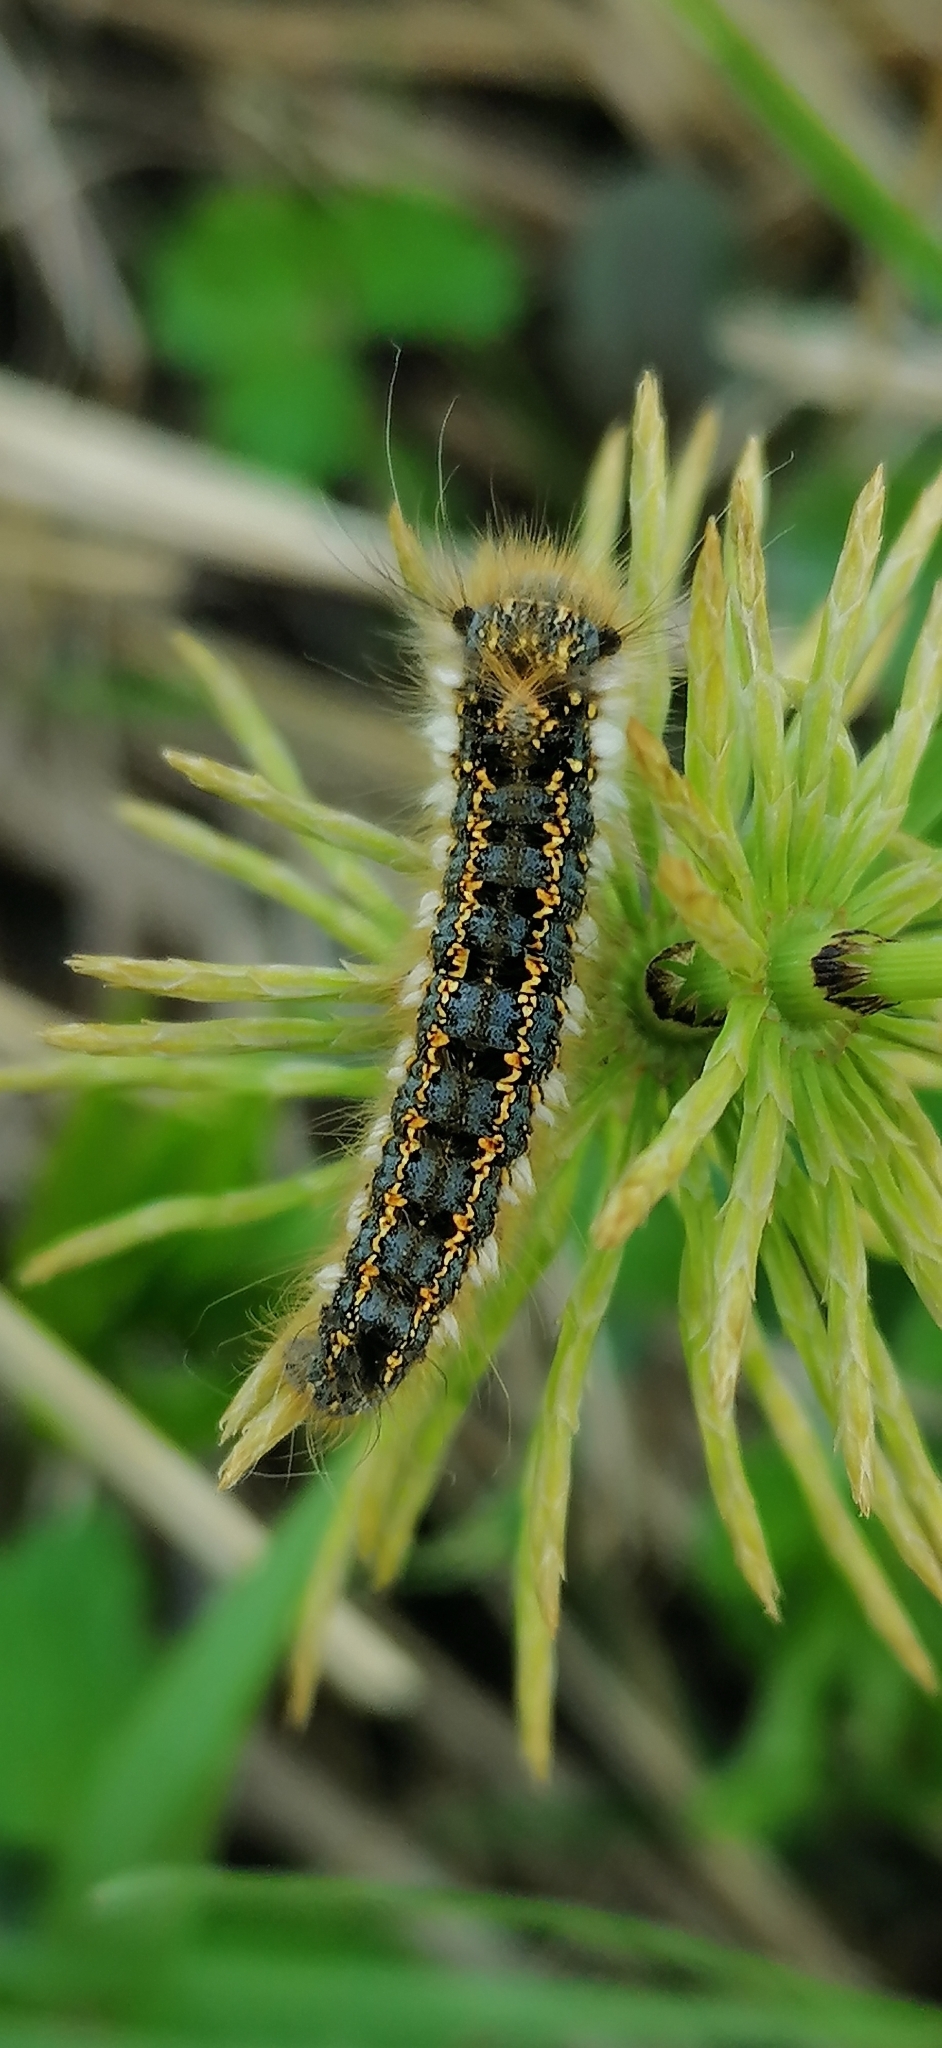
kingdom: Animalia
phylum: Arthropoda
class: Insecta
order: Lepidoptera
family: Lasiocampidae
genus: Euthrix
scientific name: Euthrix potatoria
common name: Drinker
